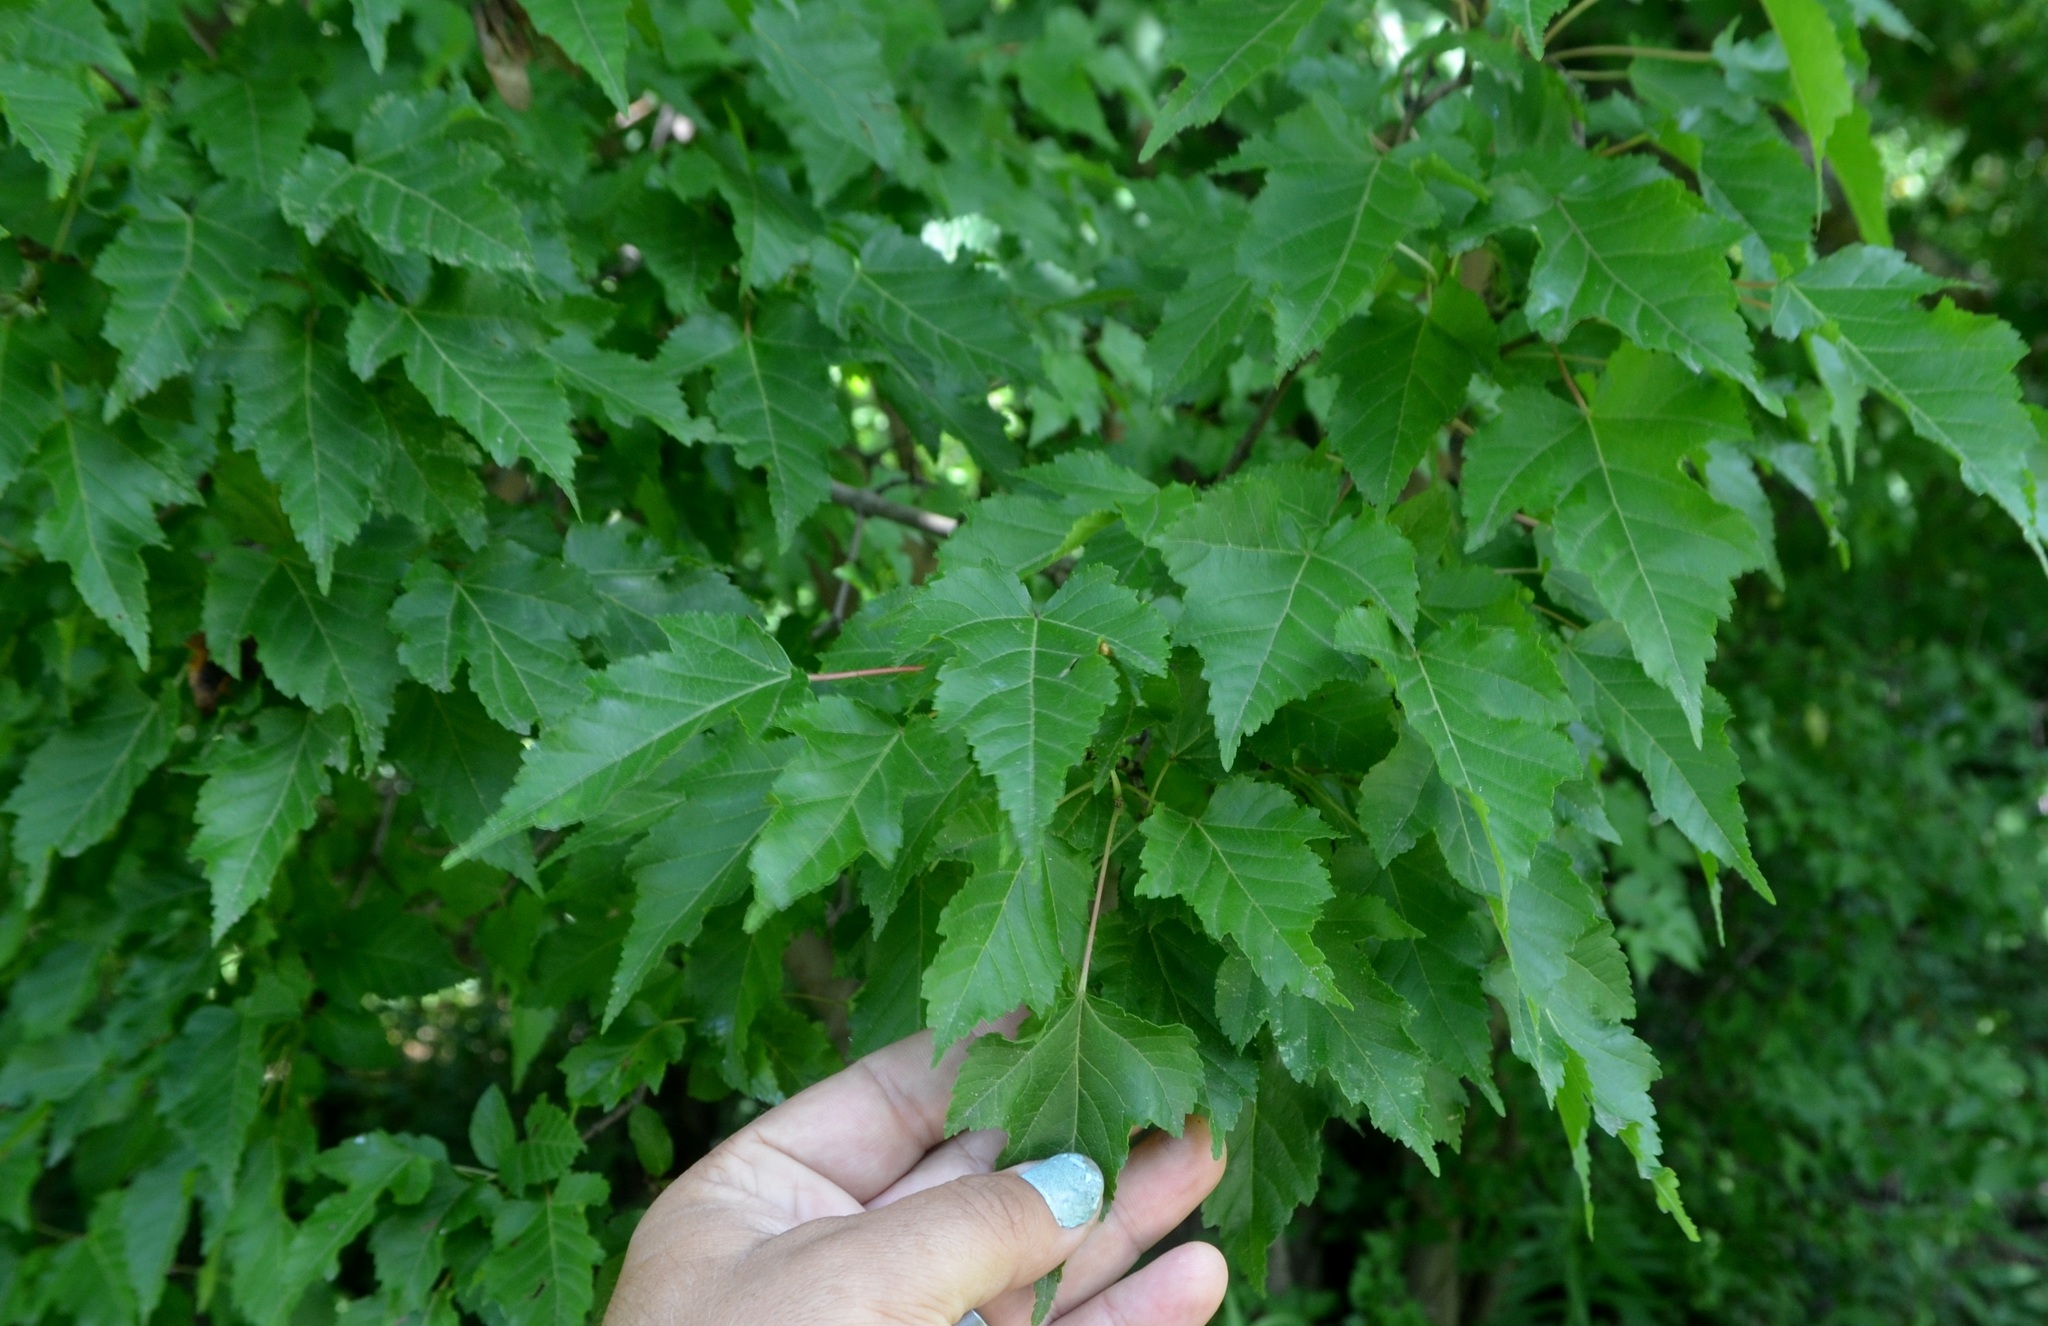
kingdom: Plantae
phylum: Tracheophyta
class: Magnoliopsida
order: Sapindales
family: Sapindaceae
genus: Acer
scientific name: Acer tataricum
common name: Tartar maple
